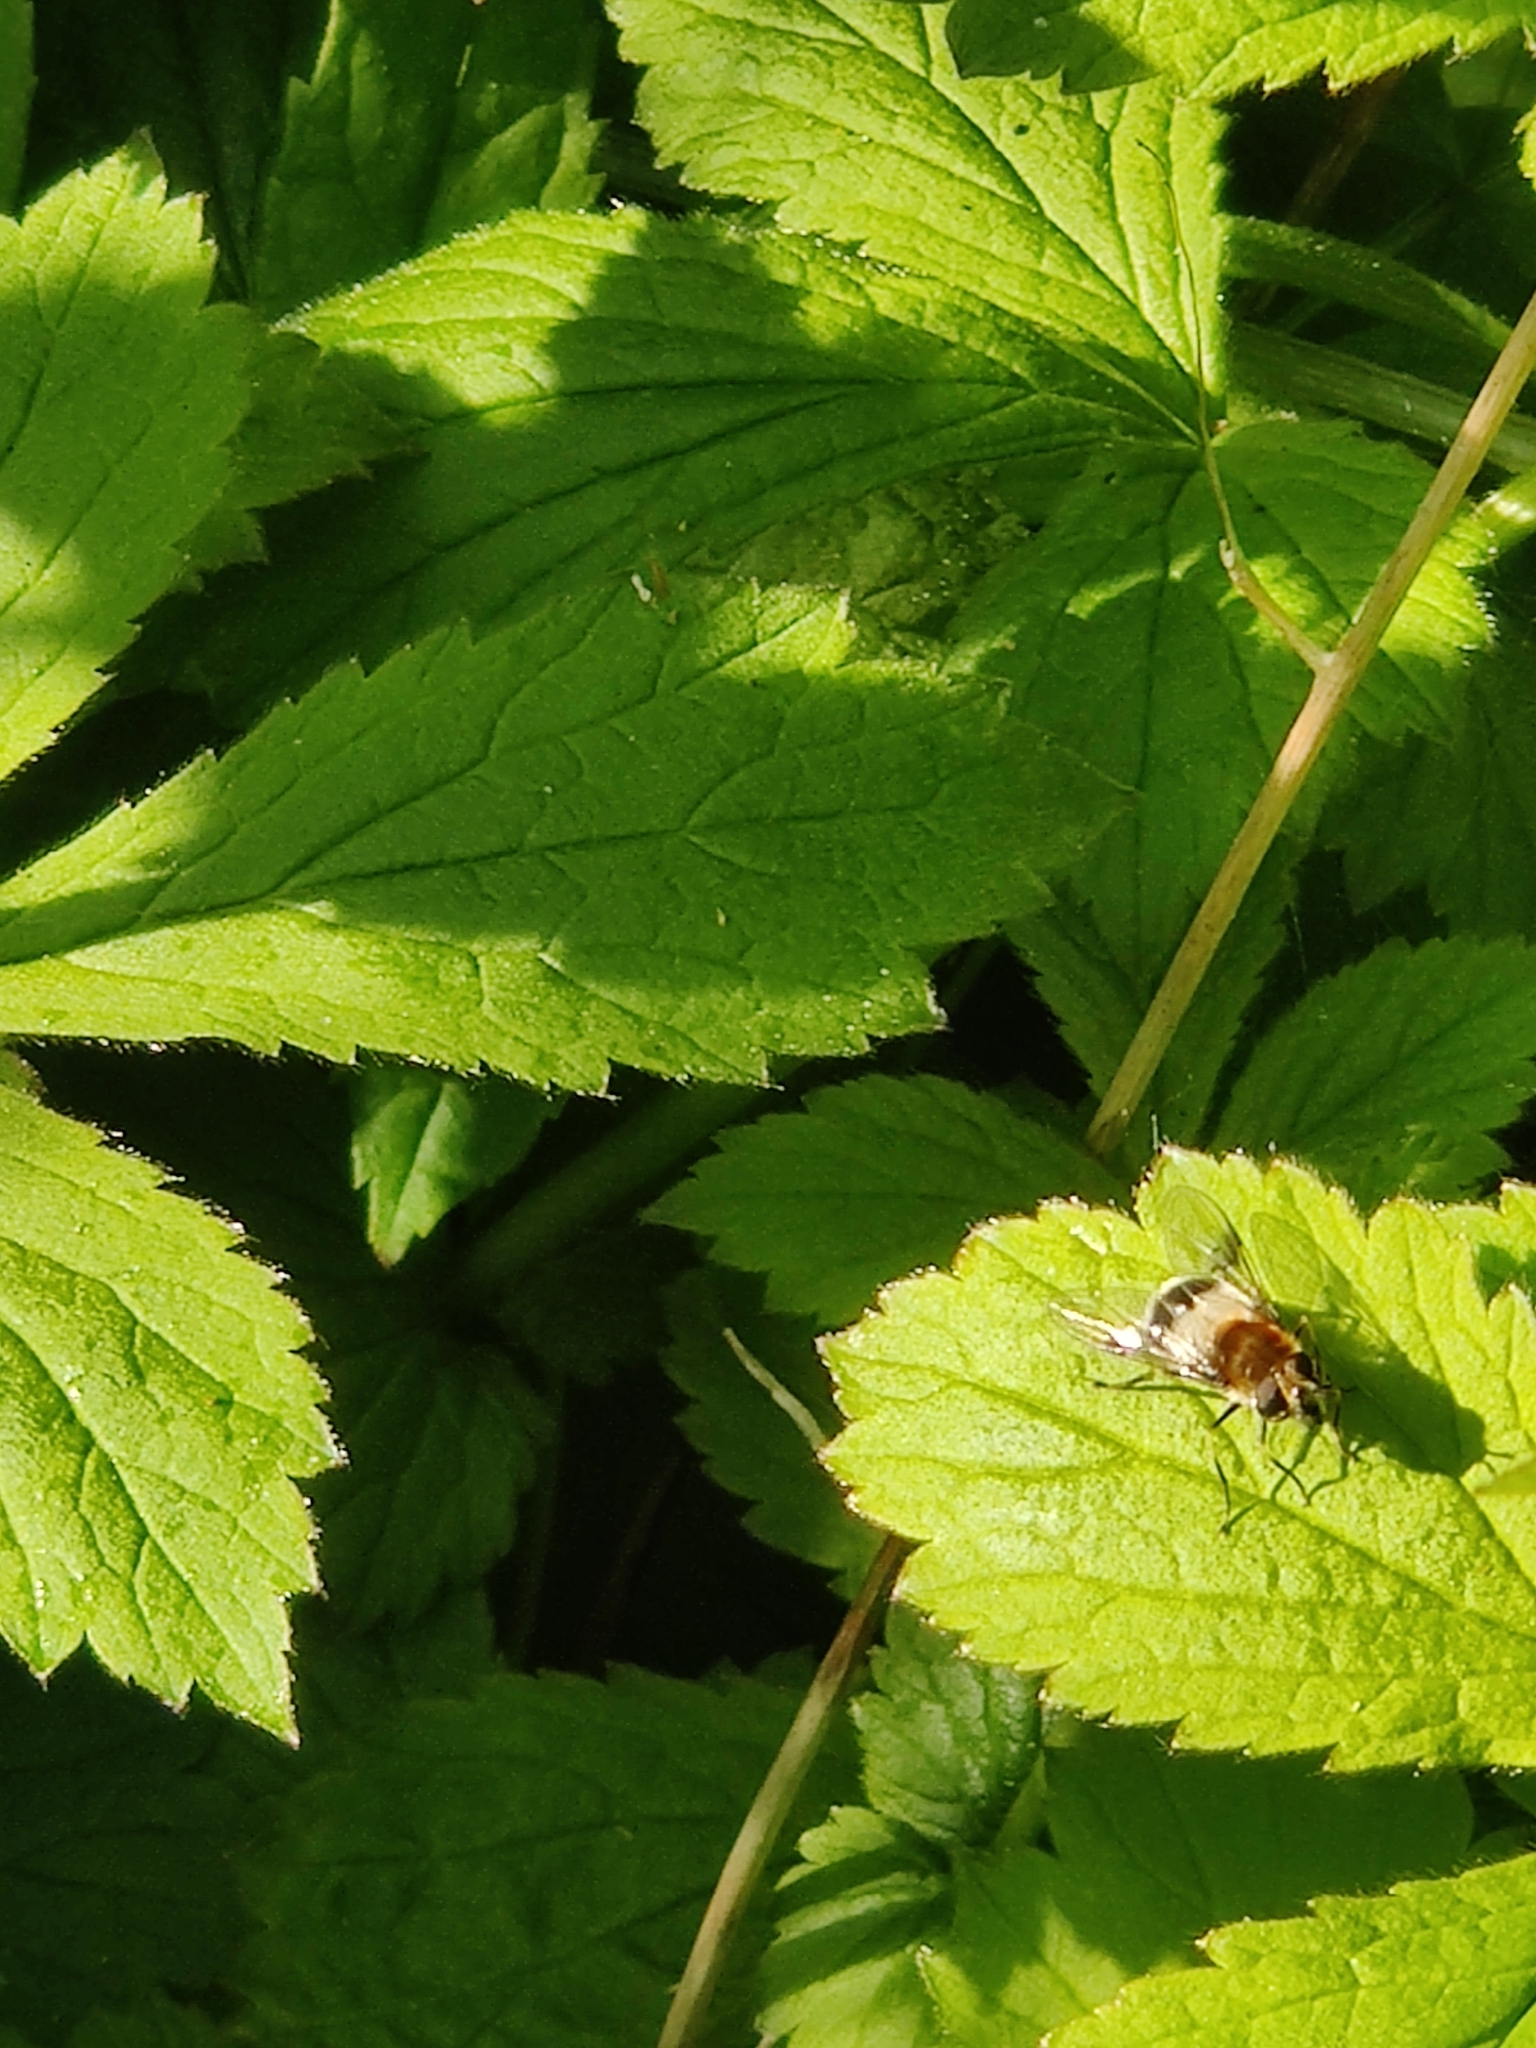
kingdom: Animalia
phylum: Arthropoda
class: Insecta
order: Diptera
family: Syrphidae
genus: Leucozona
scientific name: Leucozona lucorum
